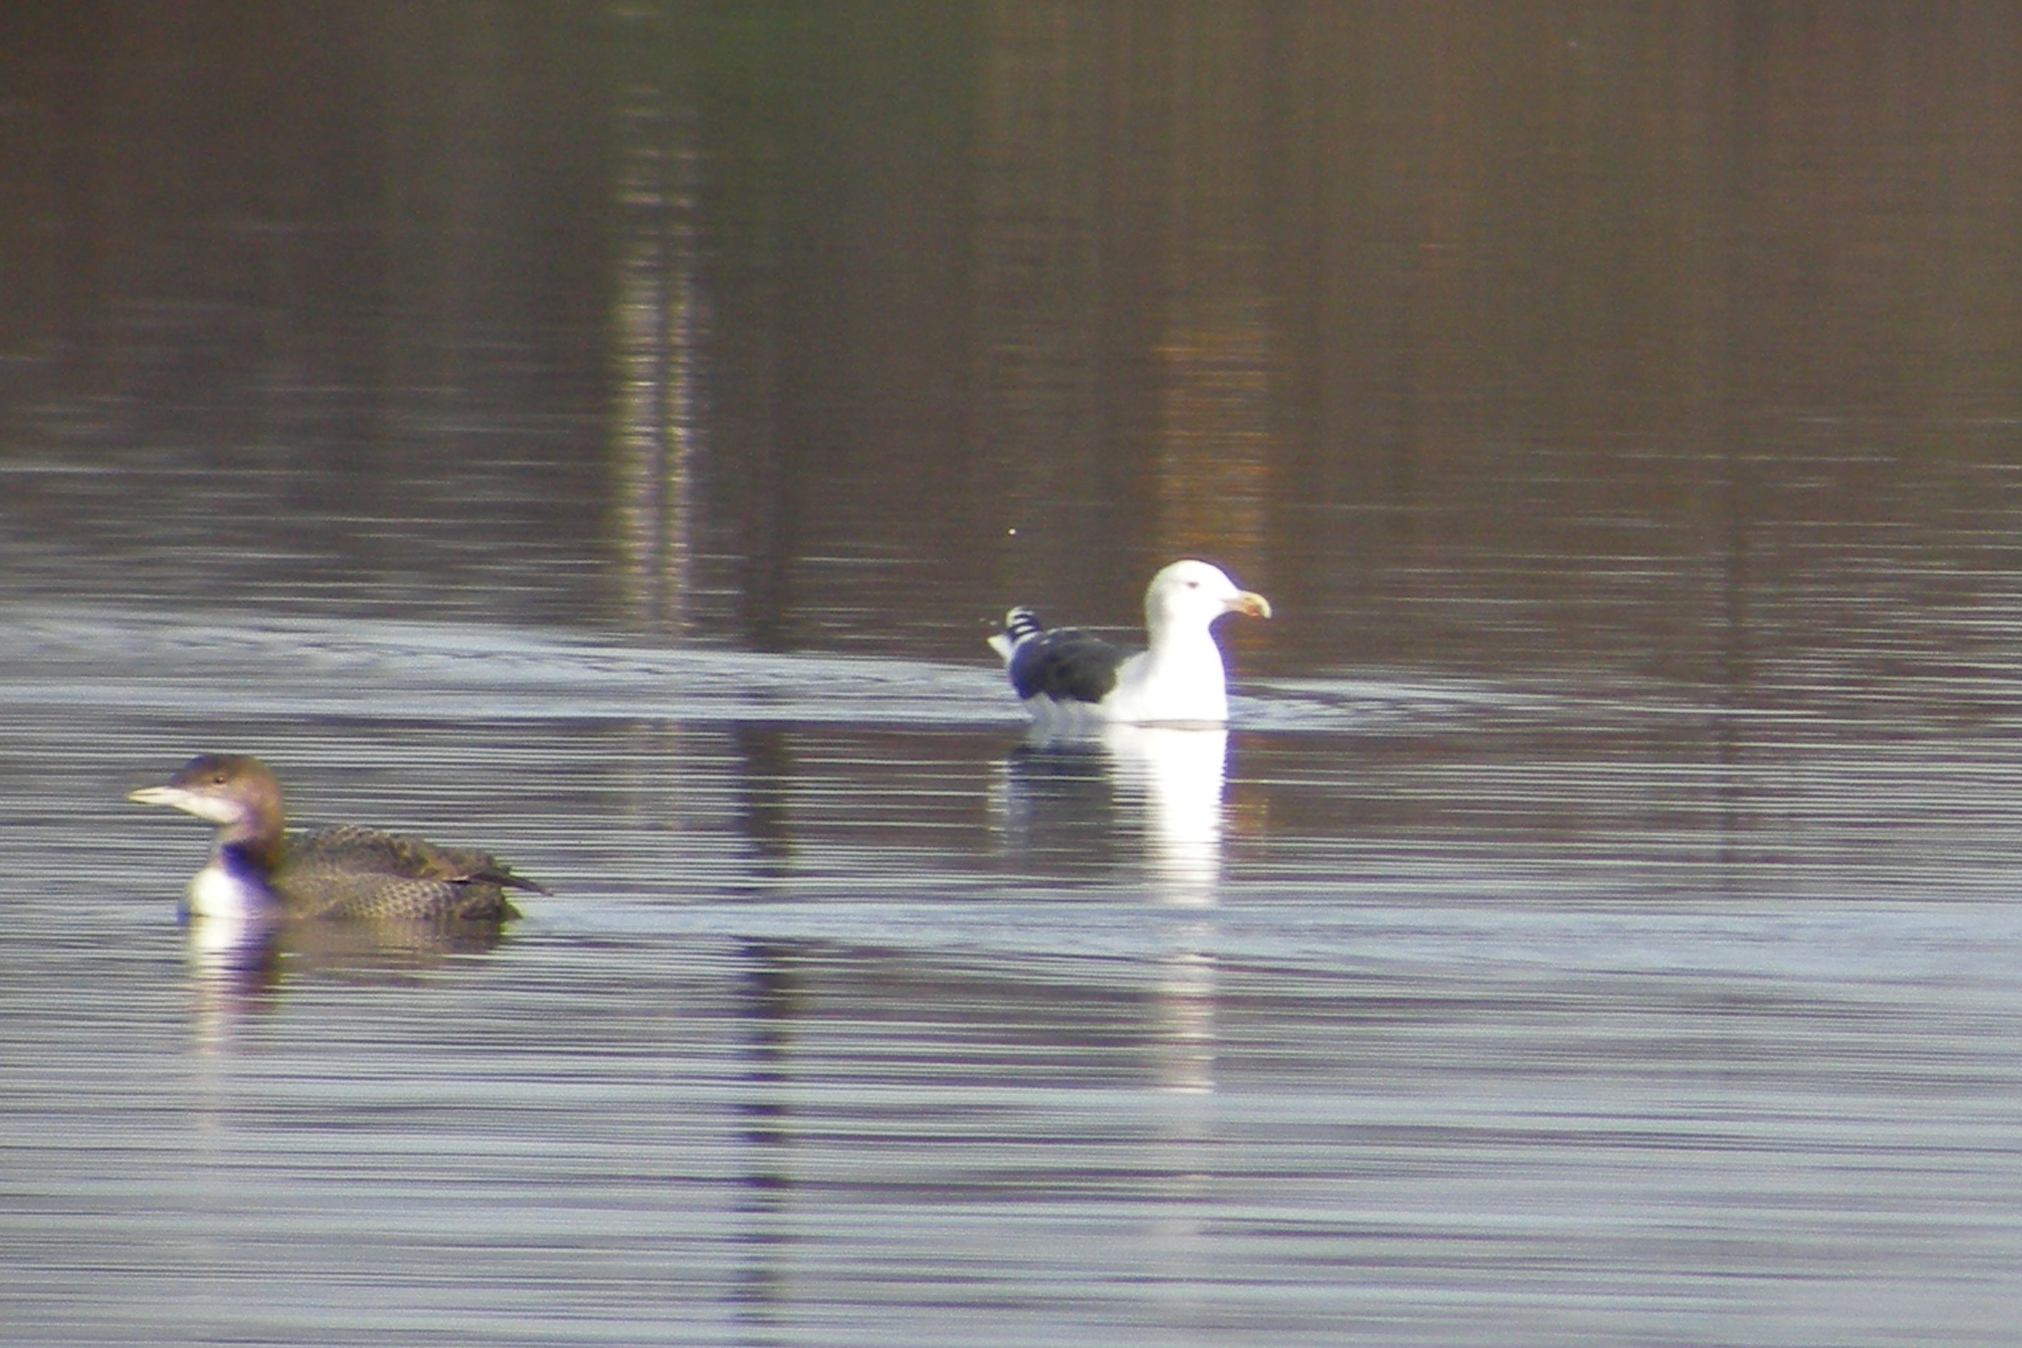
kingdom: Animalia
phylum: Chordata
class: Aves
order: Charadriiformes
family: Laridae
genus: Larus
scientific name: Larus marinus
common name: Great black-backed gull
